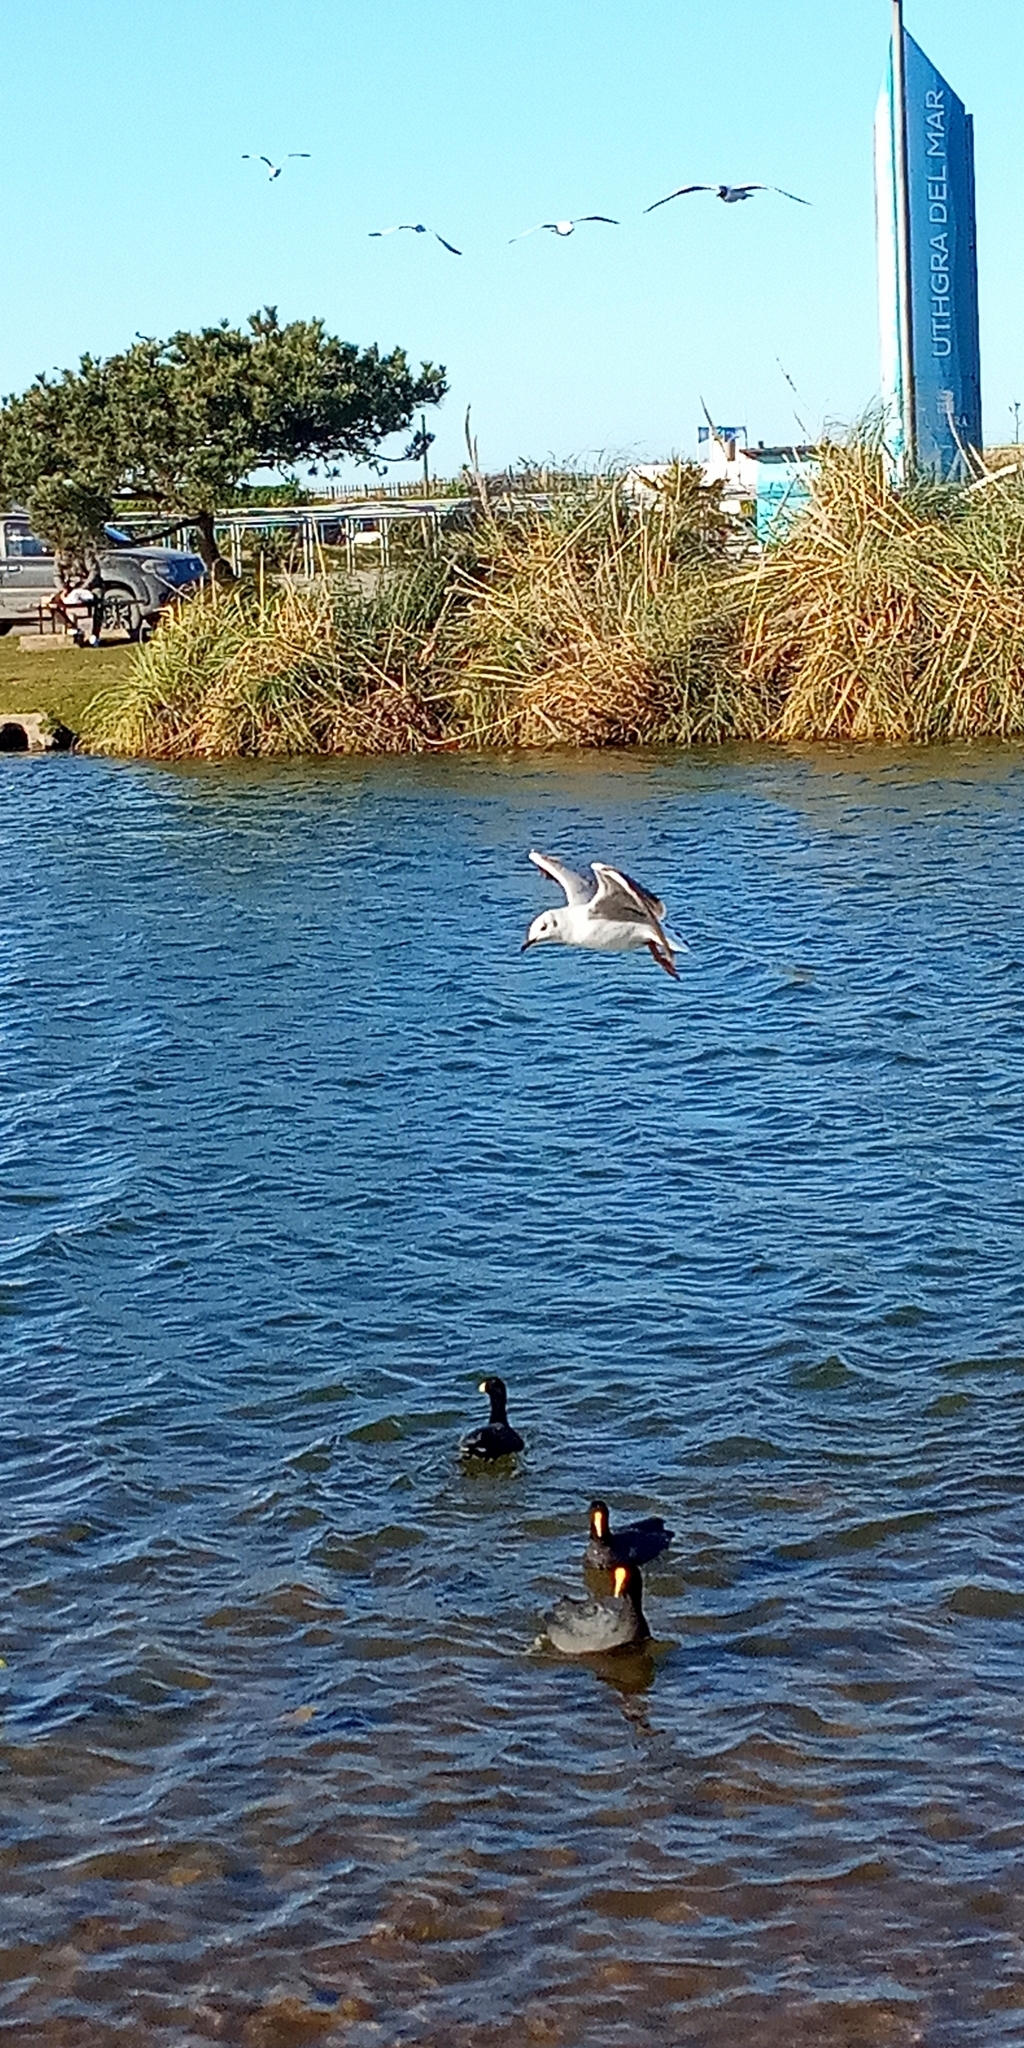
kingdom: Animalia
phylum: Chordata
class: Aves
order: Charadriiformes
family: Laridae
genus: Chroicocephalus
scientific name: Chroicocephalus maculipennis
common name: Brown-hooded gull
